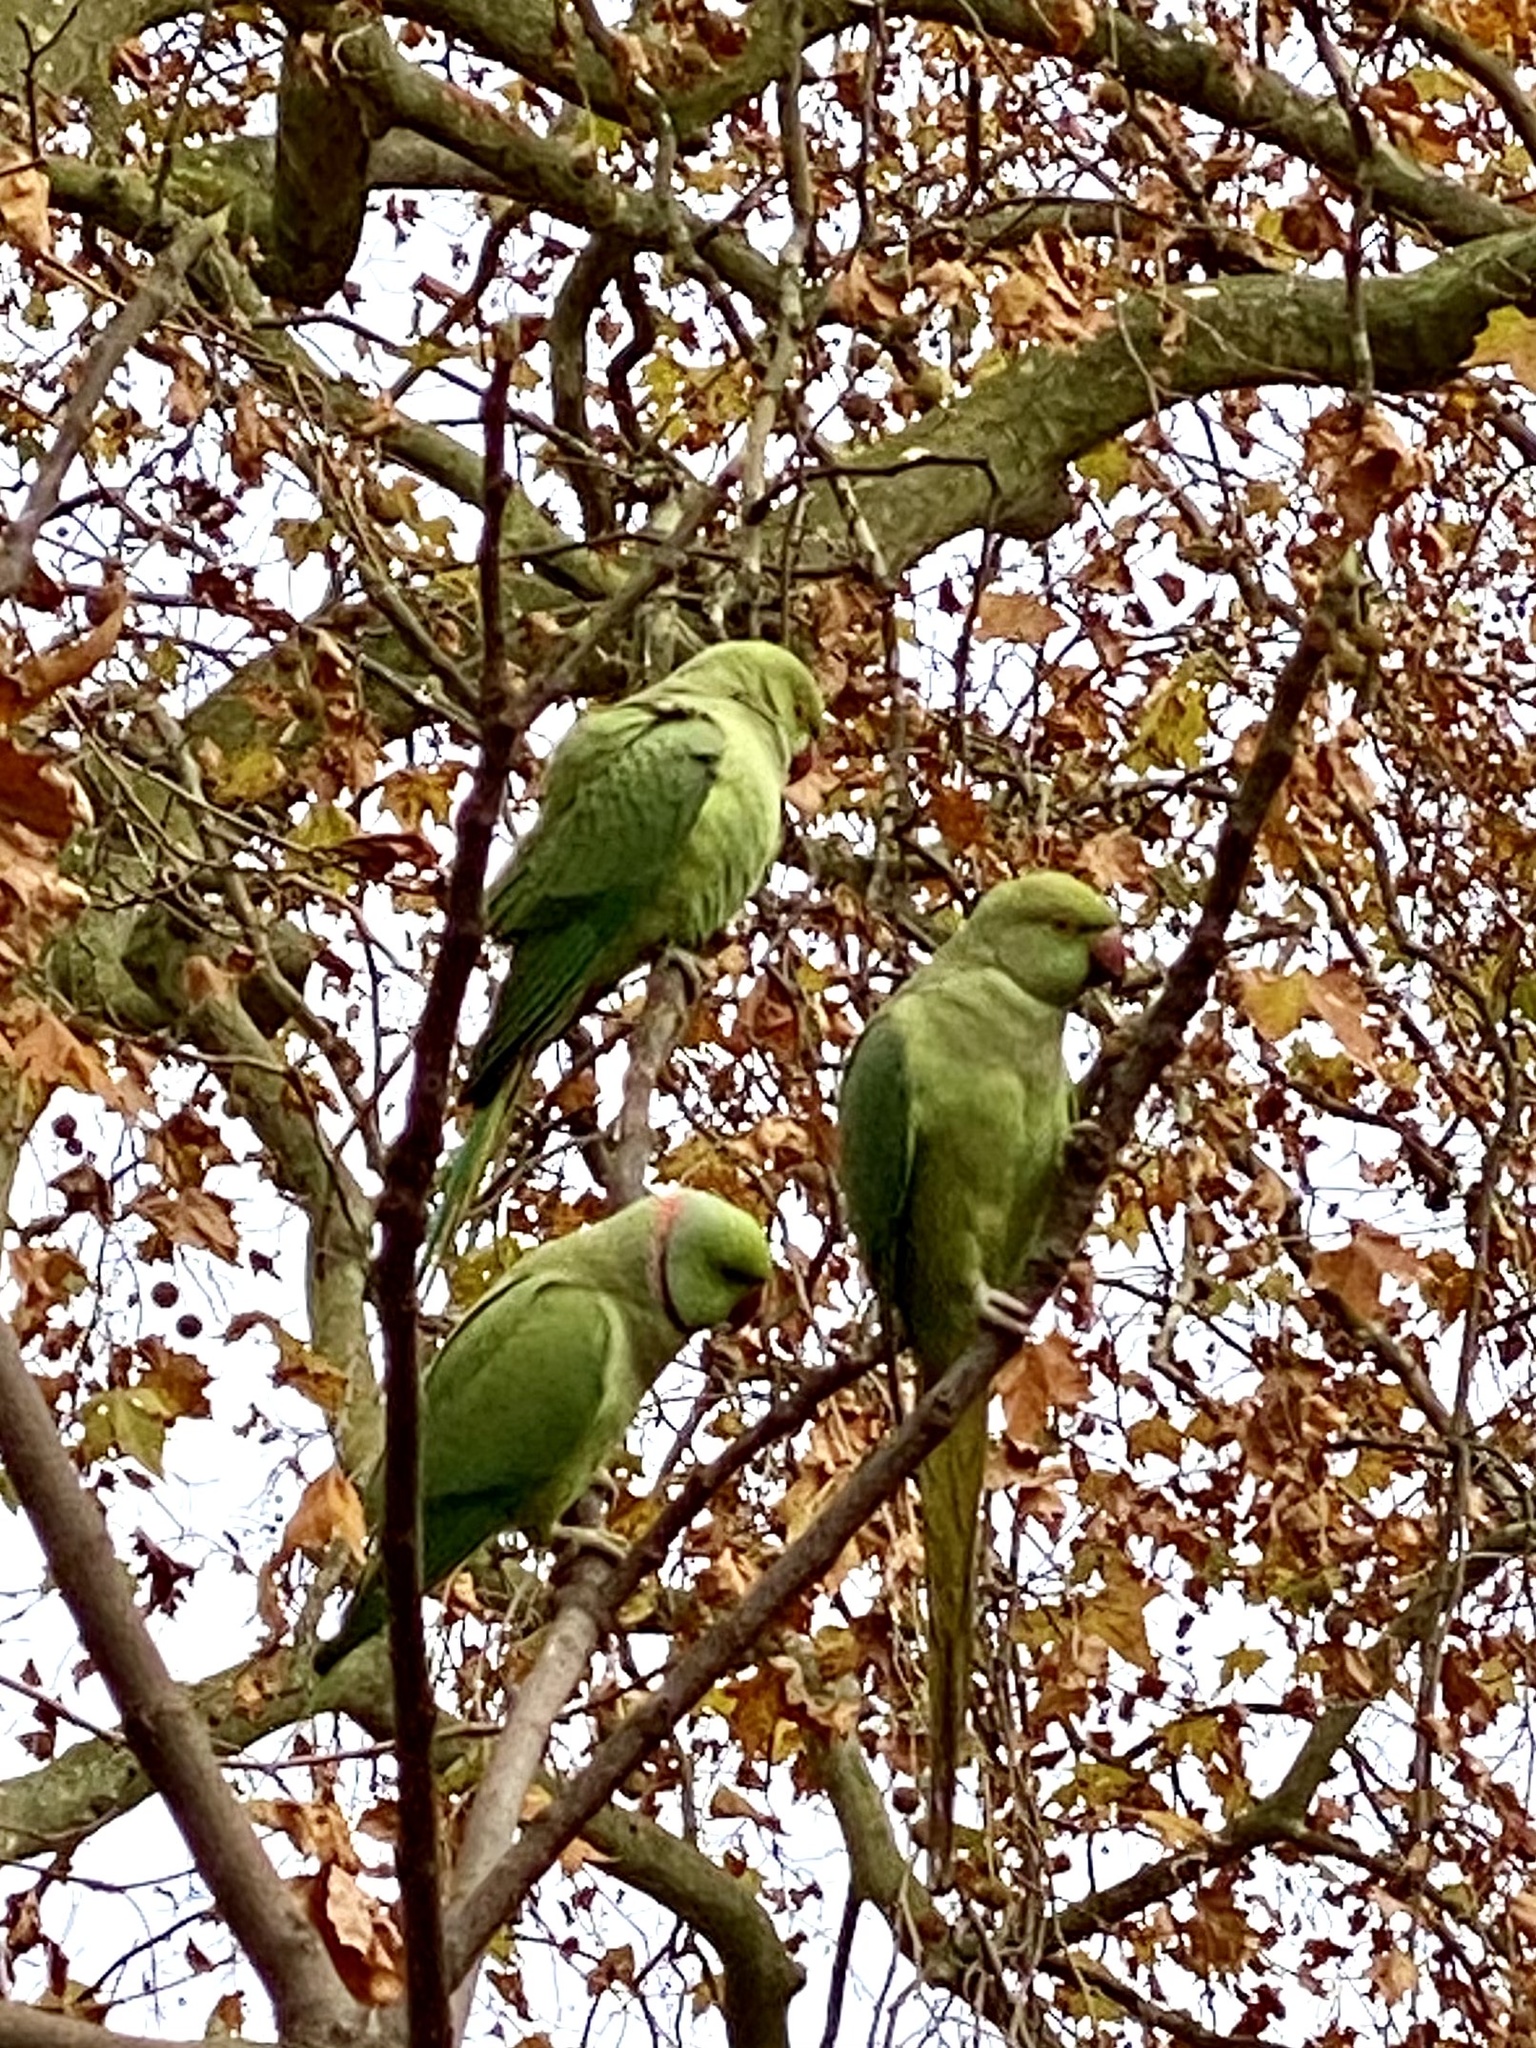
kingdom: Animalia
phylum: Chordata
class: Aves
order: Psittaciformes
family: Psittacidae
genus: Psittacula
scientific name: Psittacula krameri
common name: Rose-ringed parakeet
